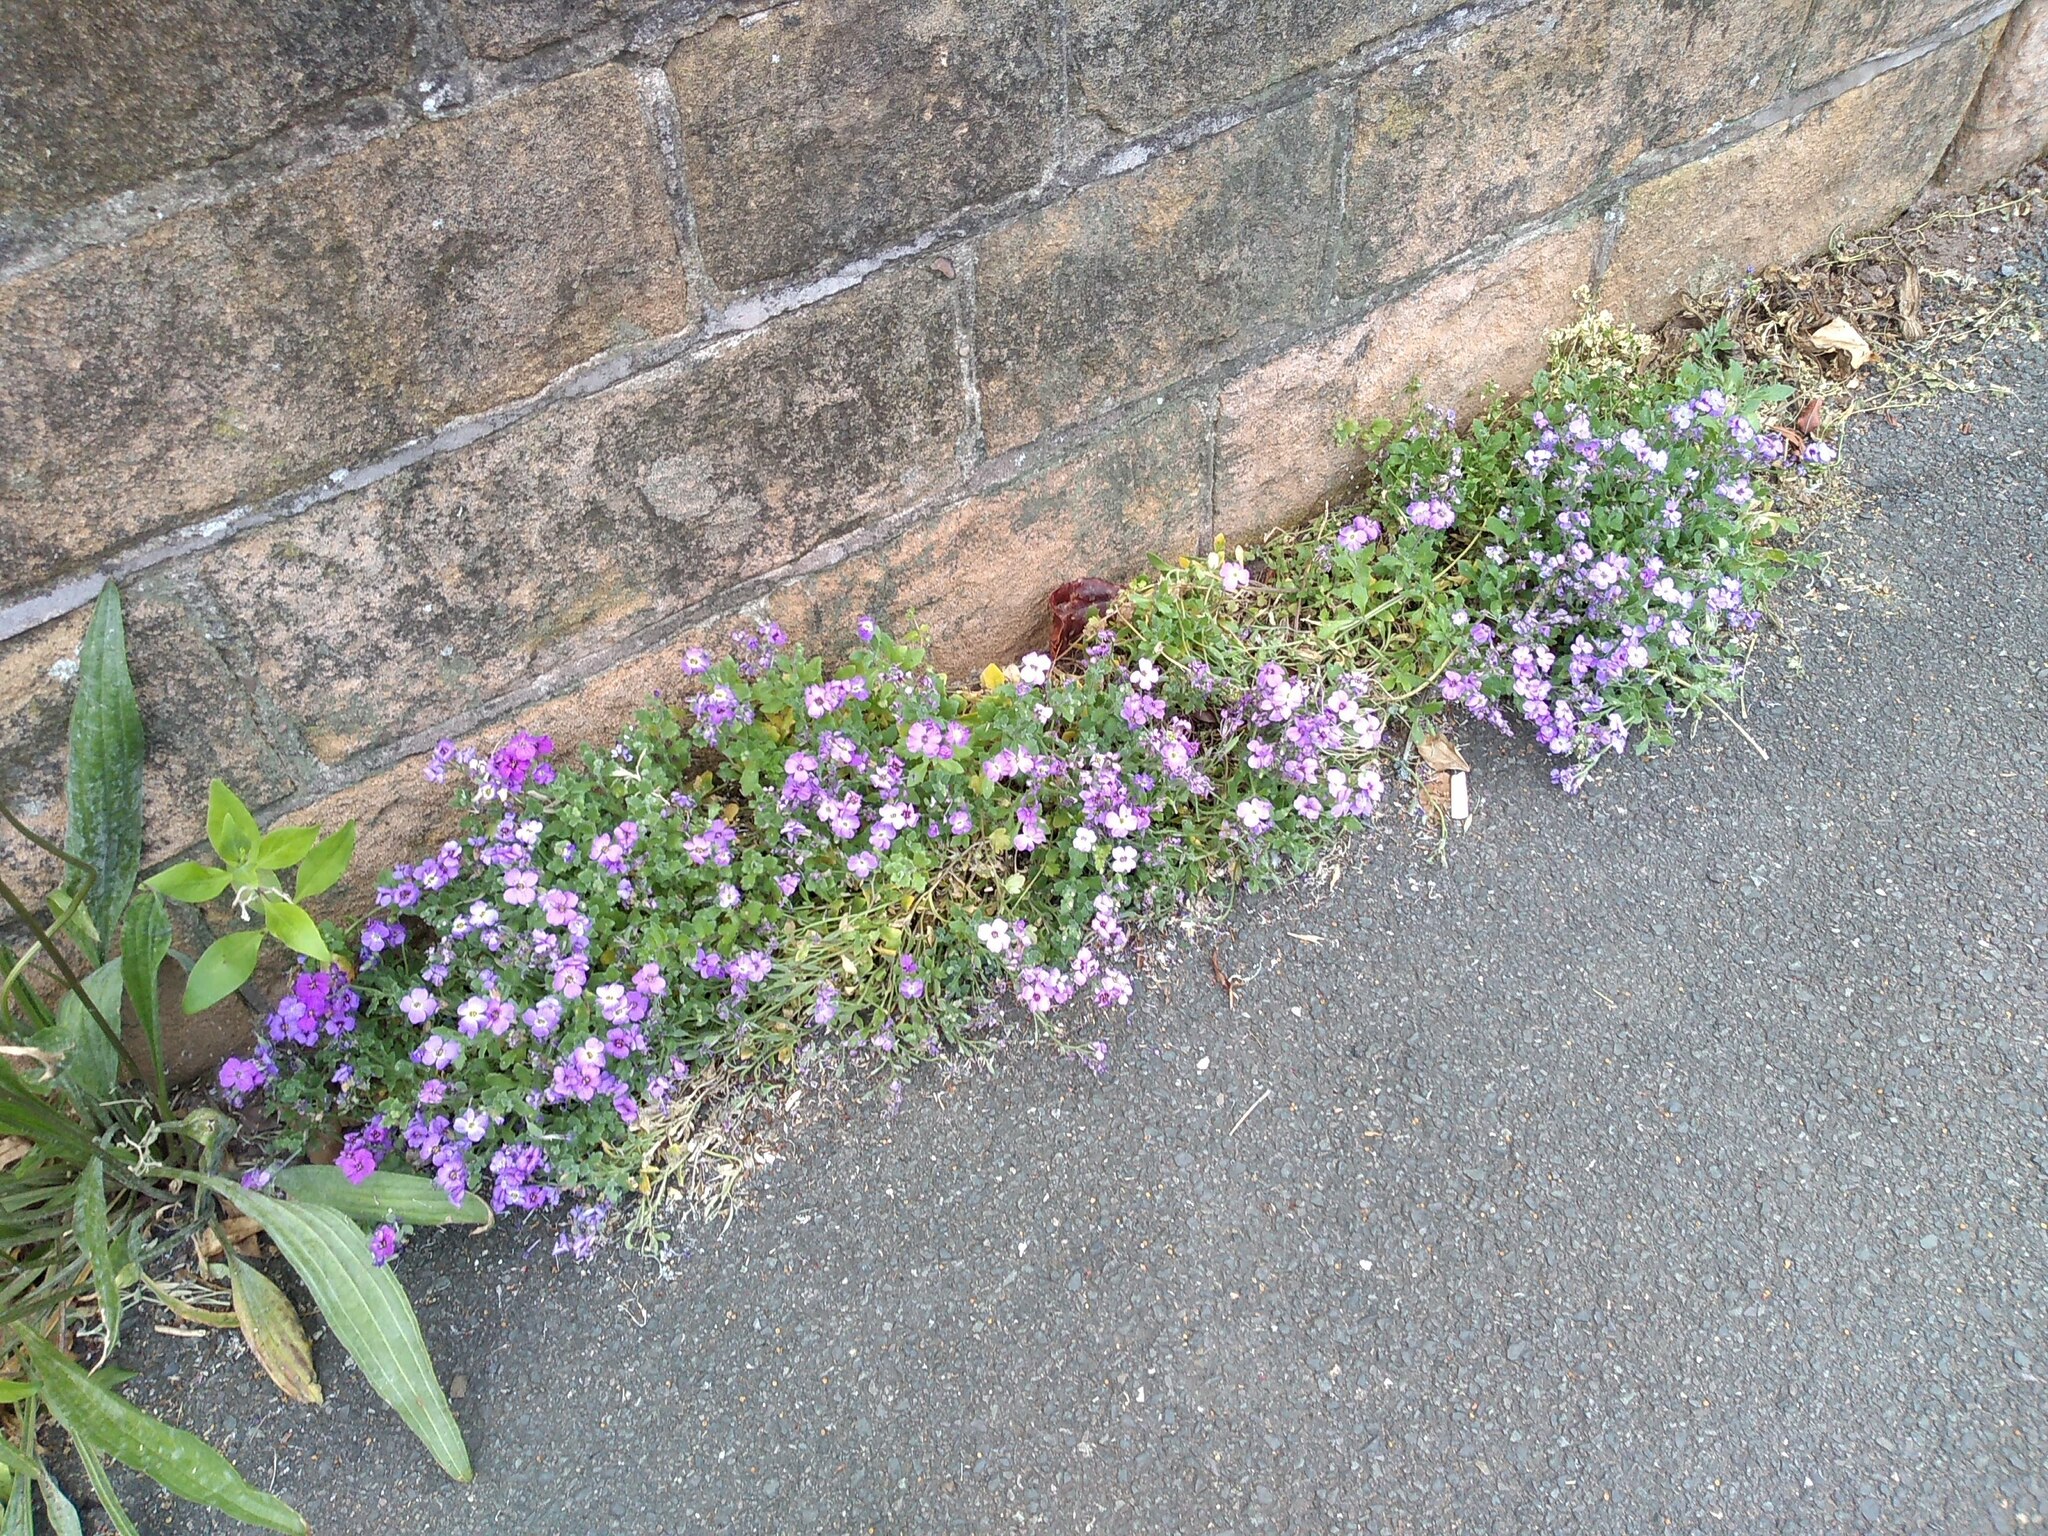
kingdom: Plantae
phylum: Tracheophyta
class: Magnoliopsida
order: Brassicales
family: Brassicaceae
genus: Aubrieta
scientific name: Aubrieta deltoidea
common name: Aubretia
